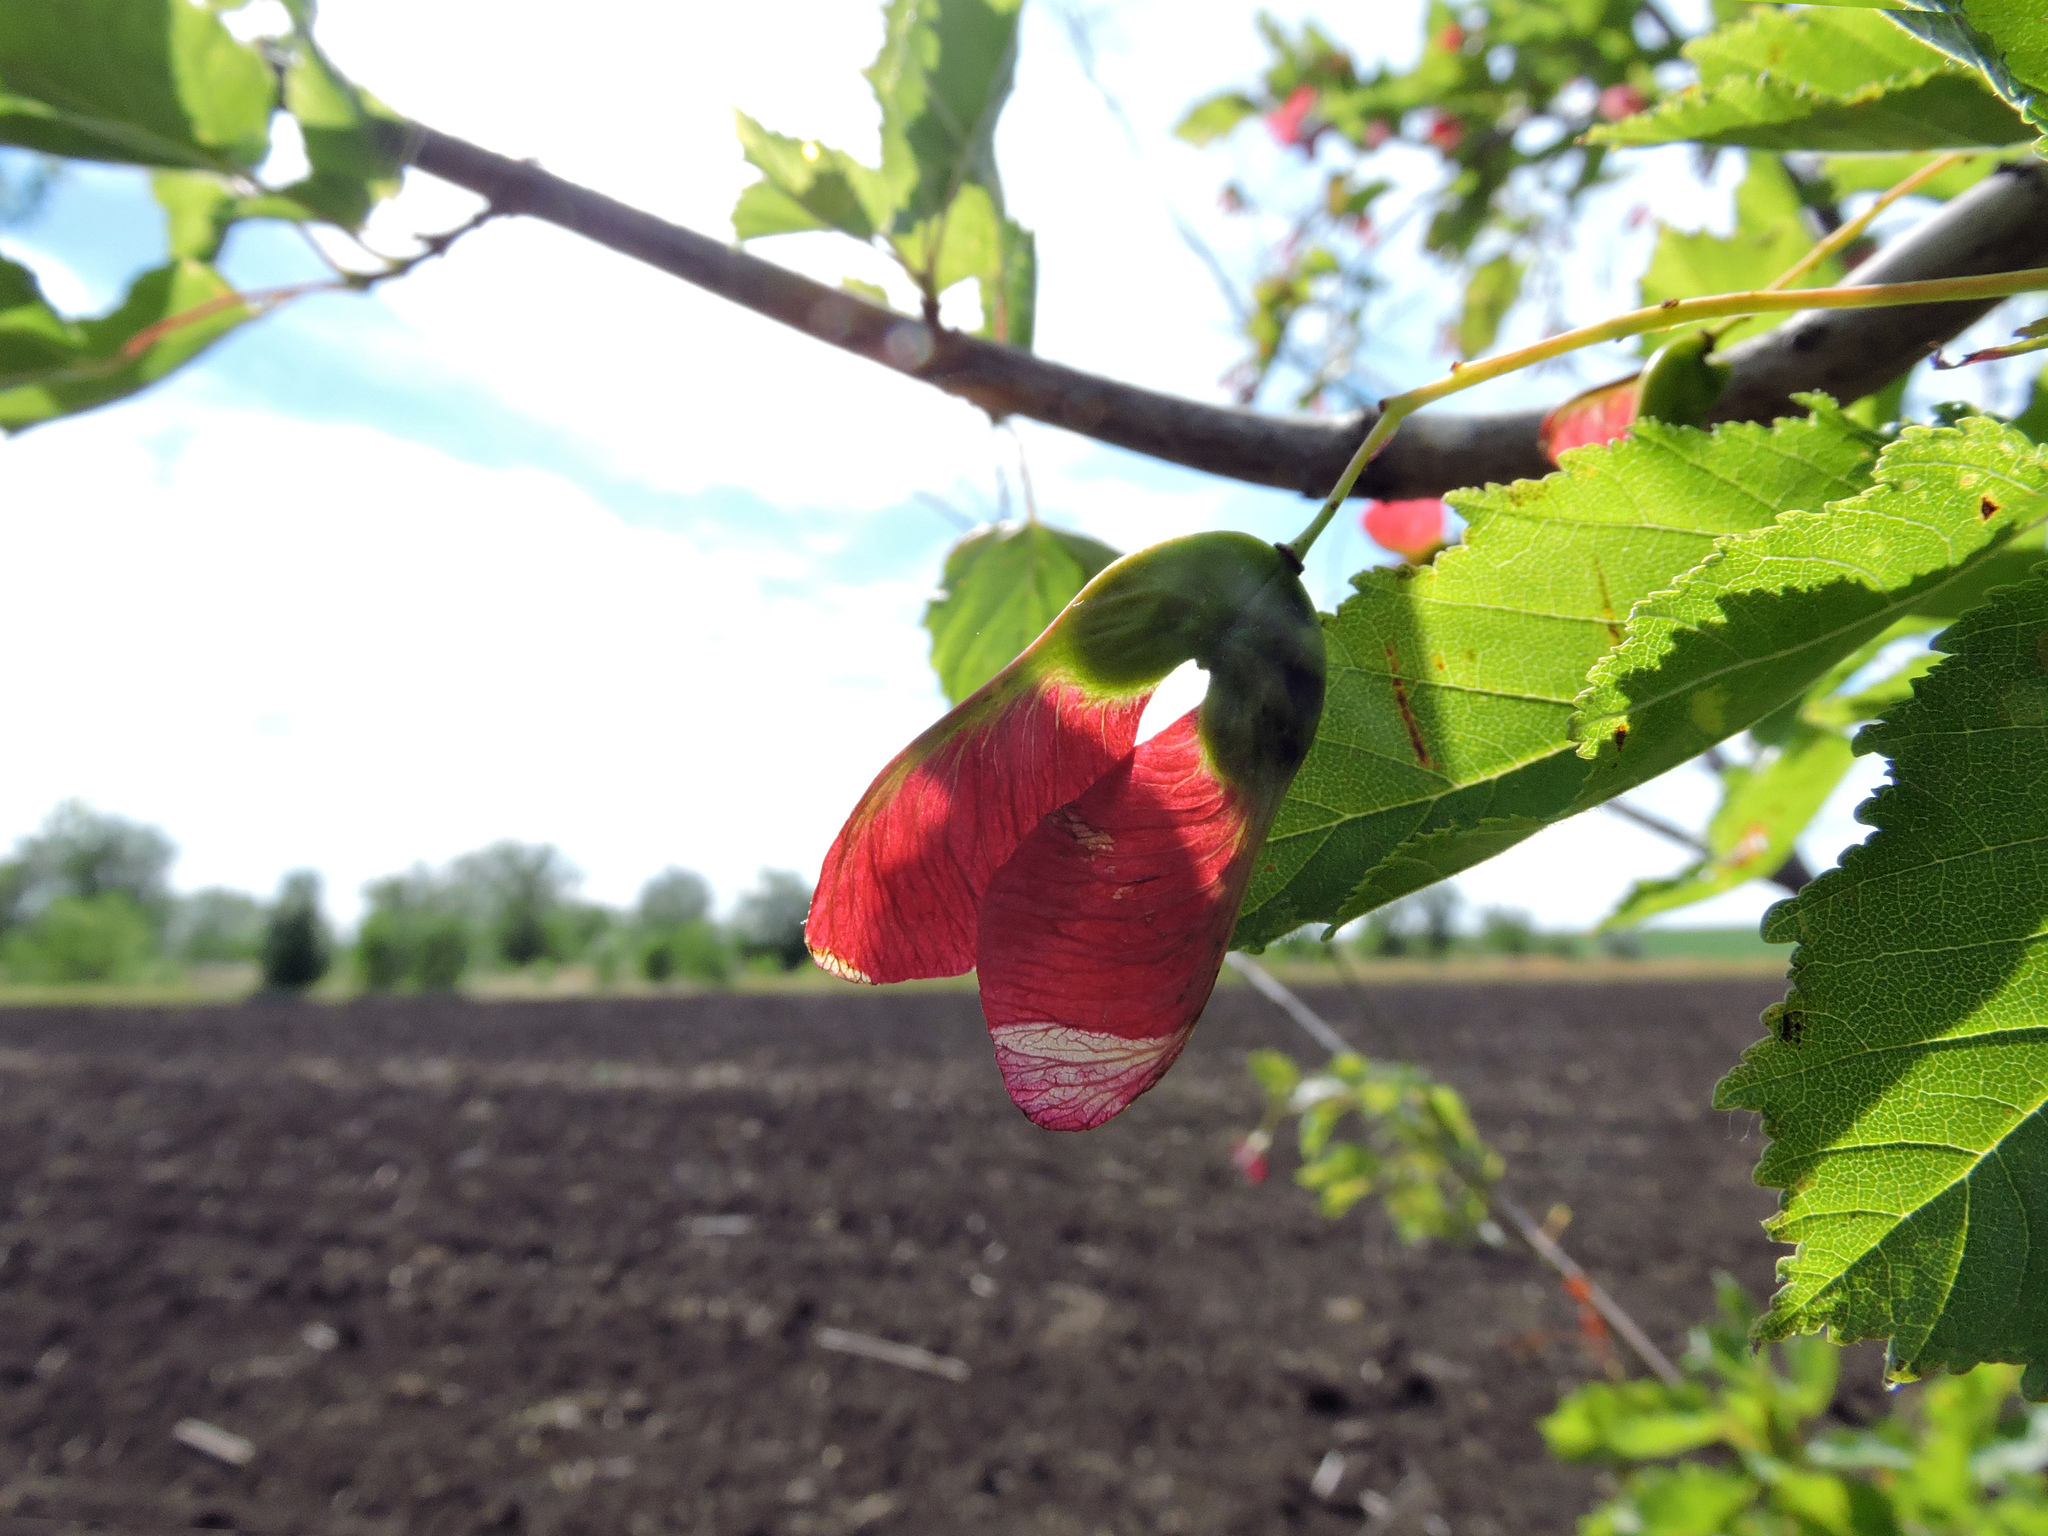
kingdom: Plantae
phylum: Tracheophyta
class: Magnoliopsida
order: Sapindales
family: Sapindaceae
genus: Acer
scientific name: Acer tataricum
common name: Tartar maple
